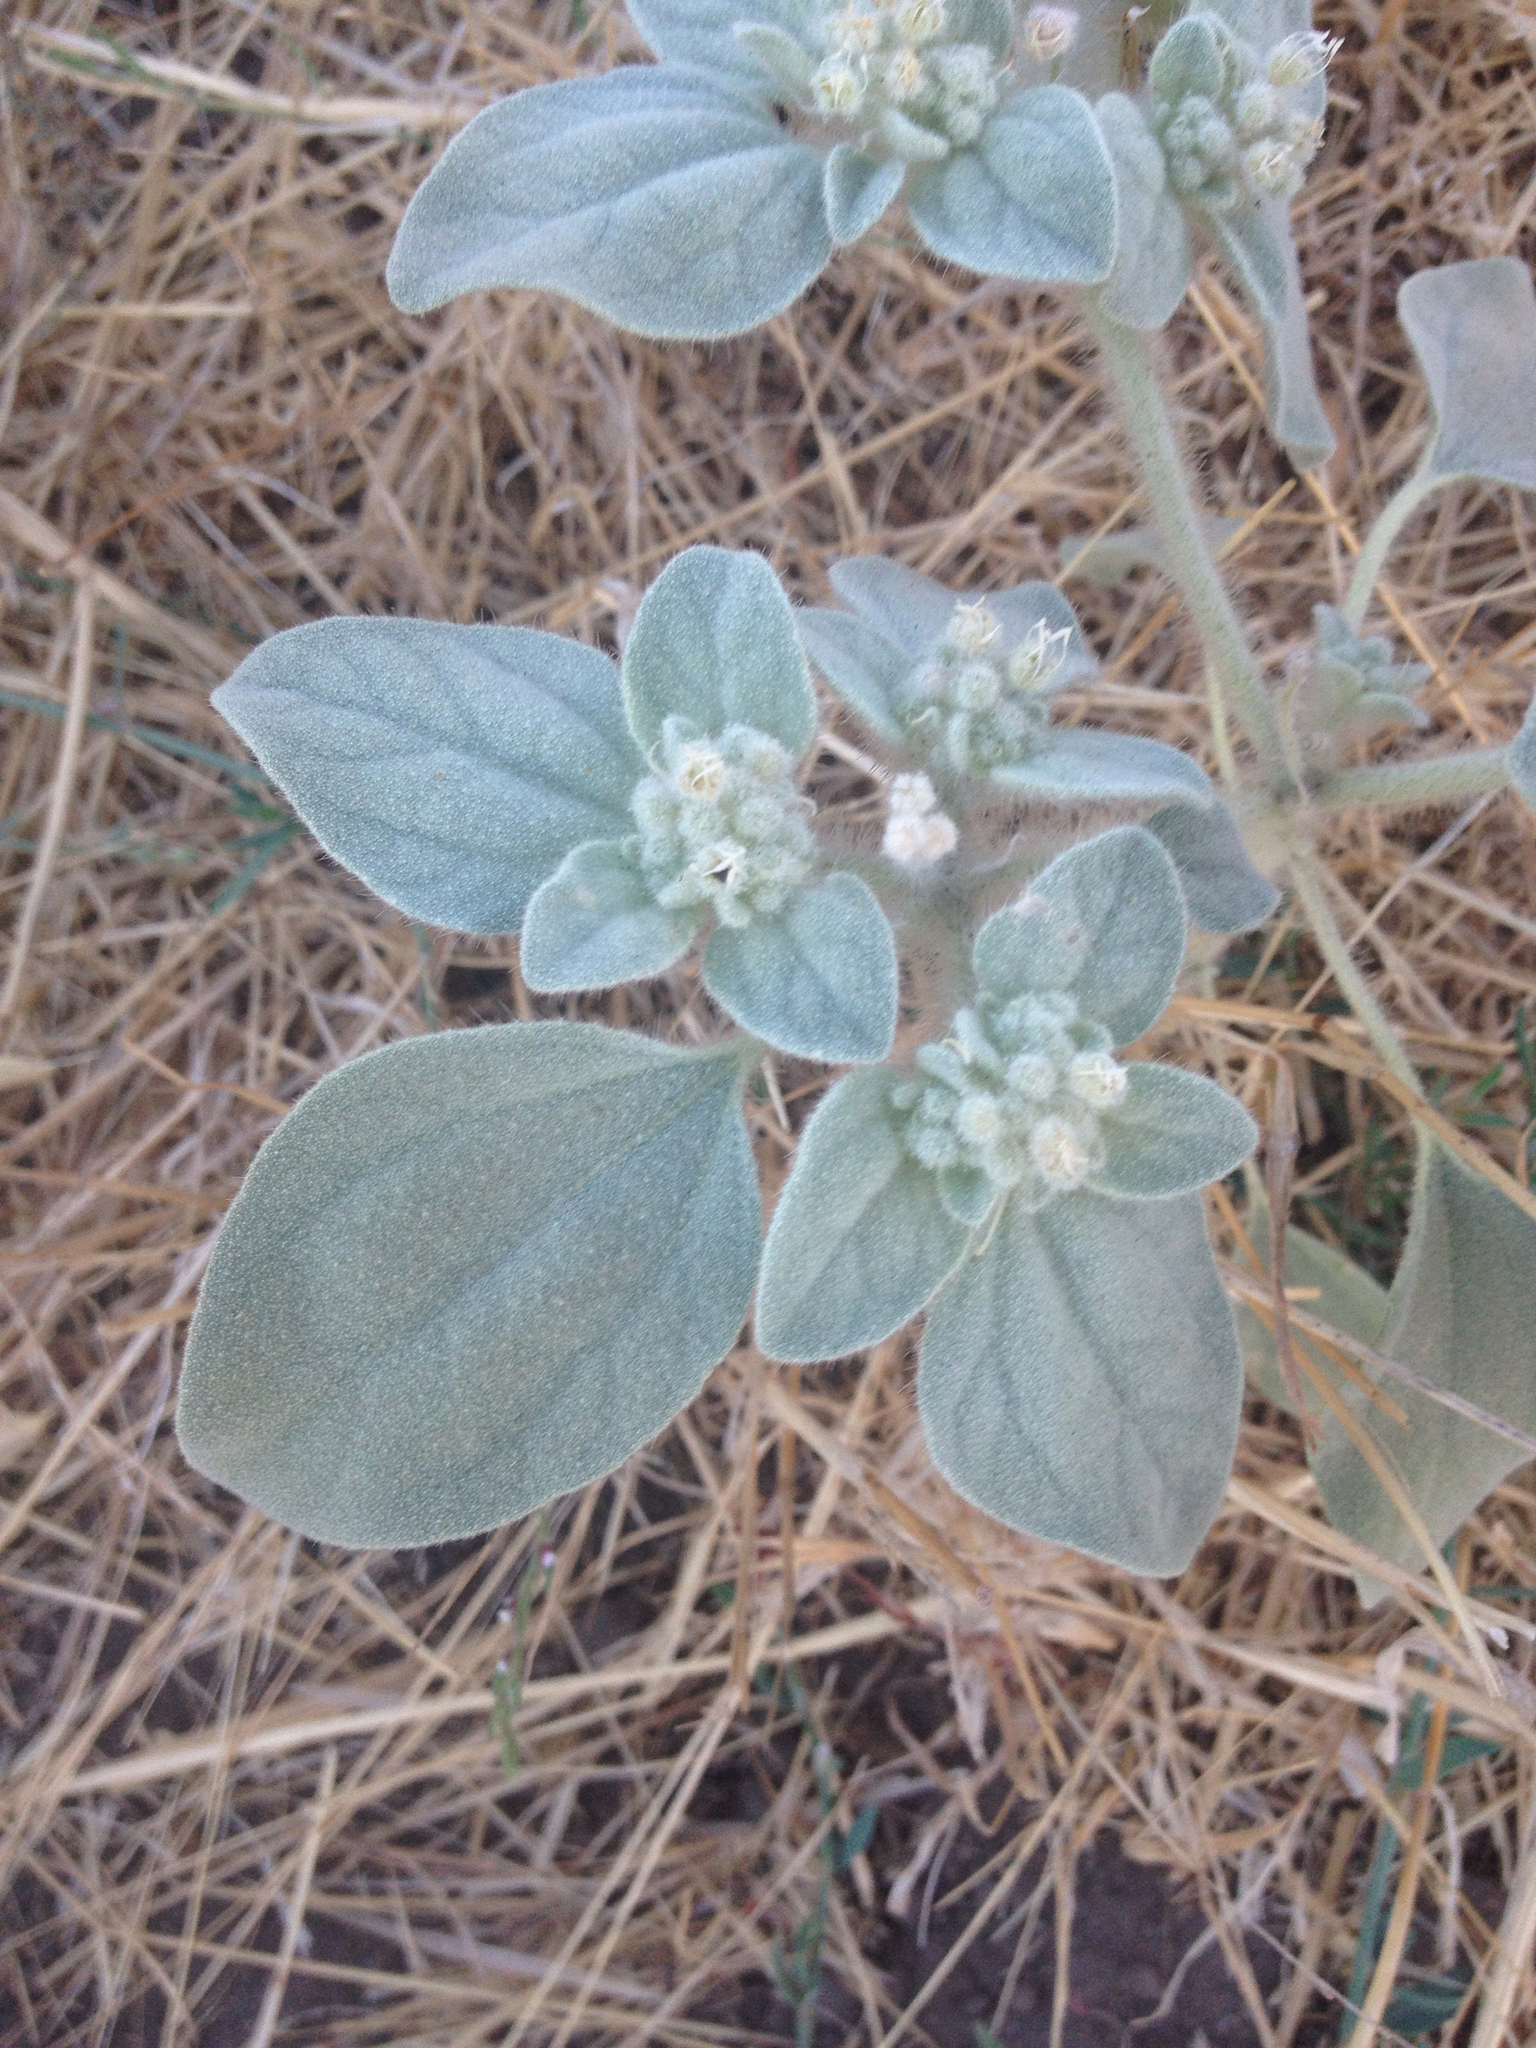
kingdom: Plantae
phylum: Tracheophyta
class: Magnoliopsida
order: Malpighiales
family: Euphorbiaceae
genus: Croton
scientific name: Croton setiger
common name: Dove weed
